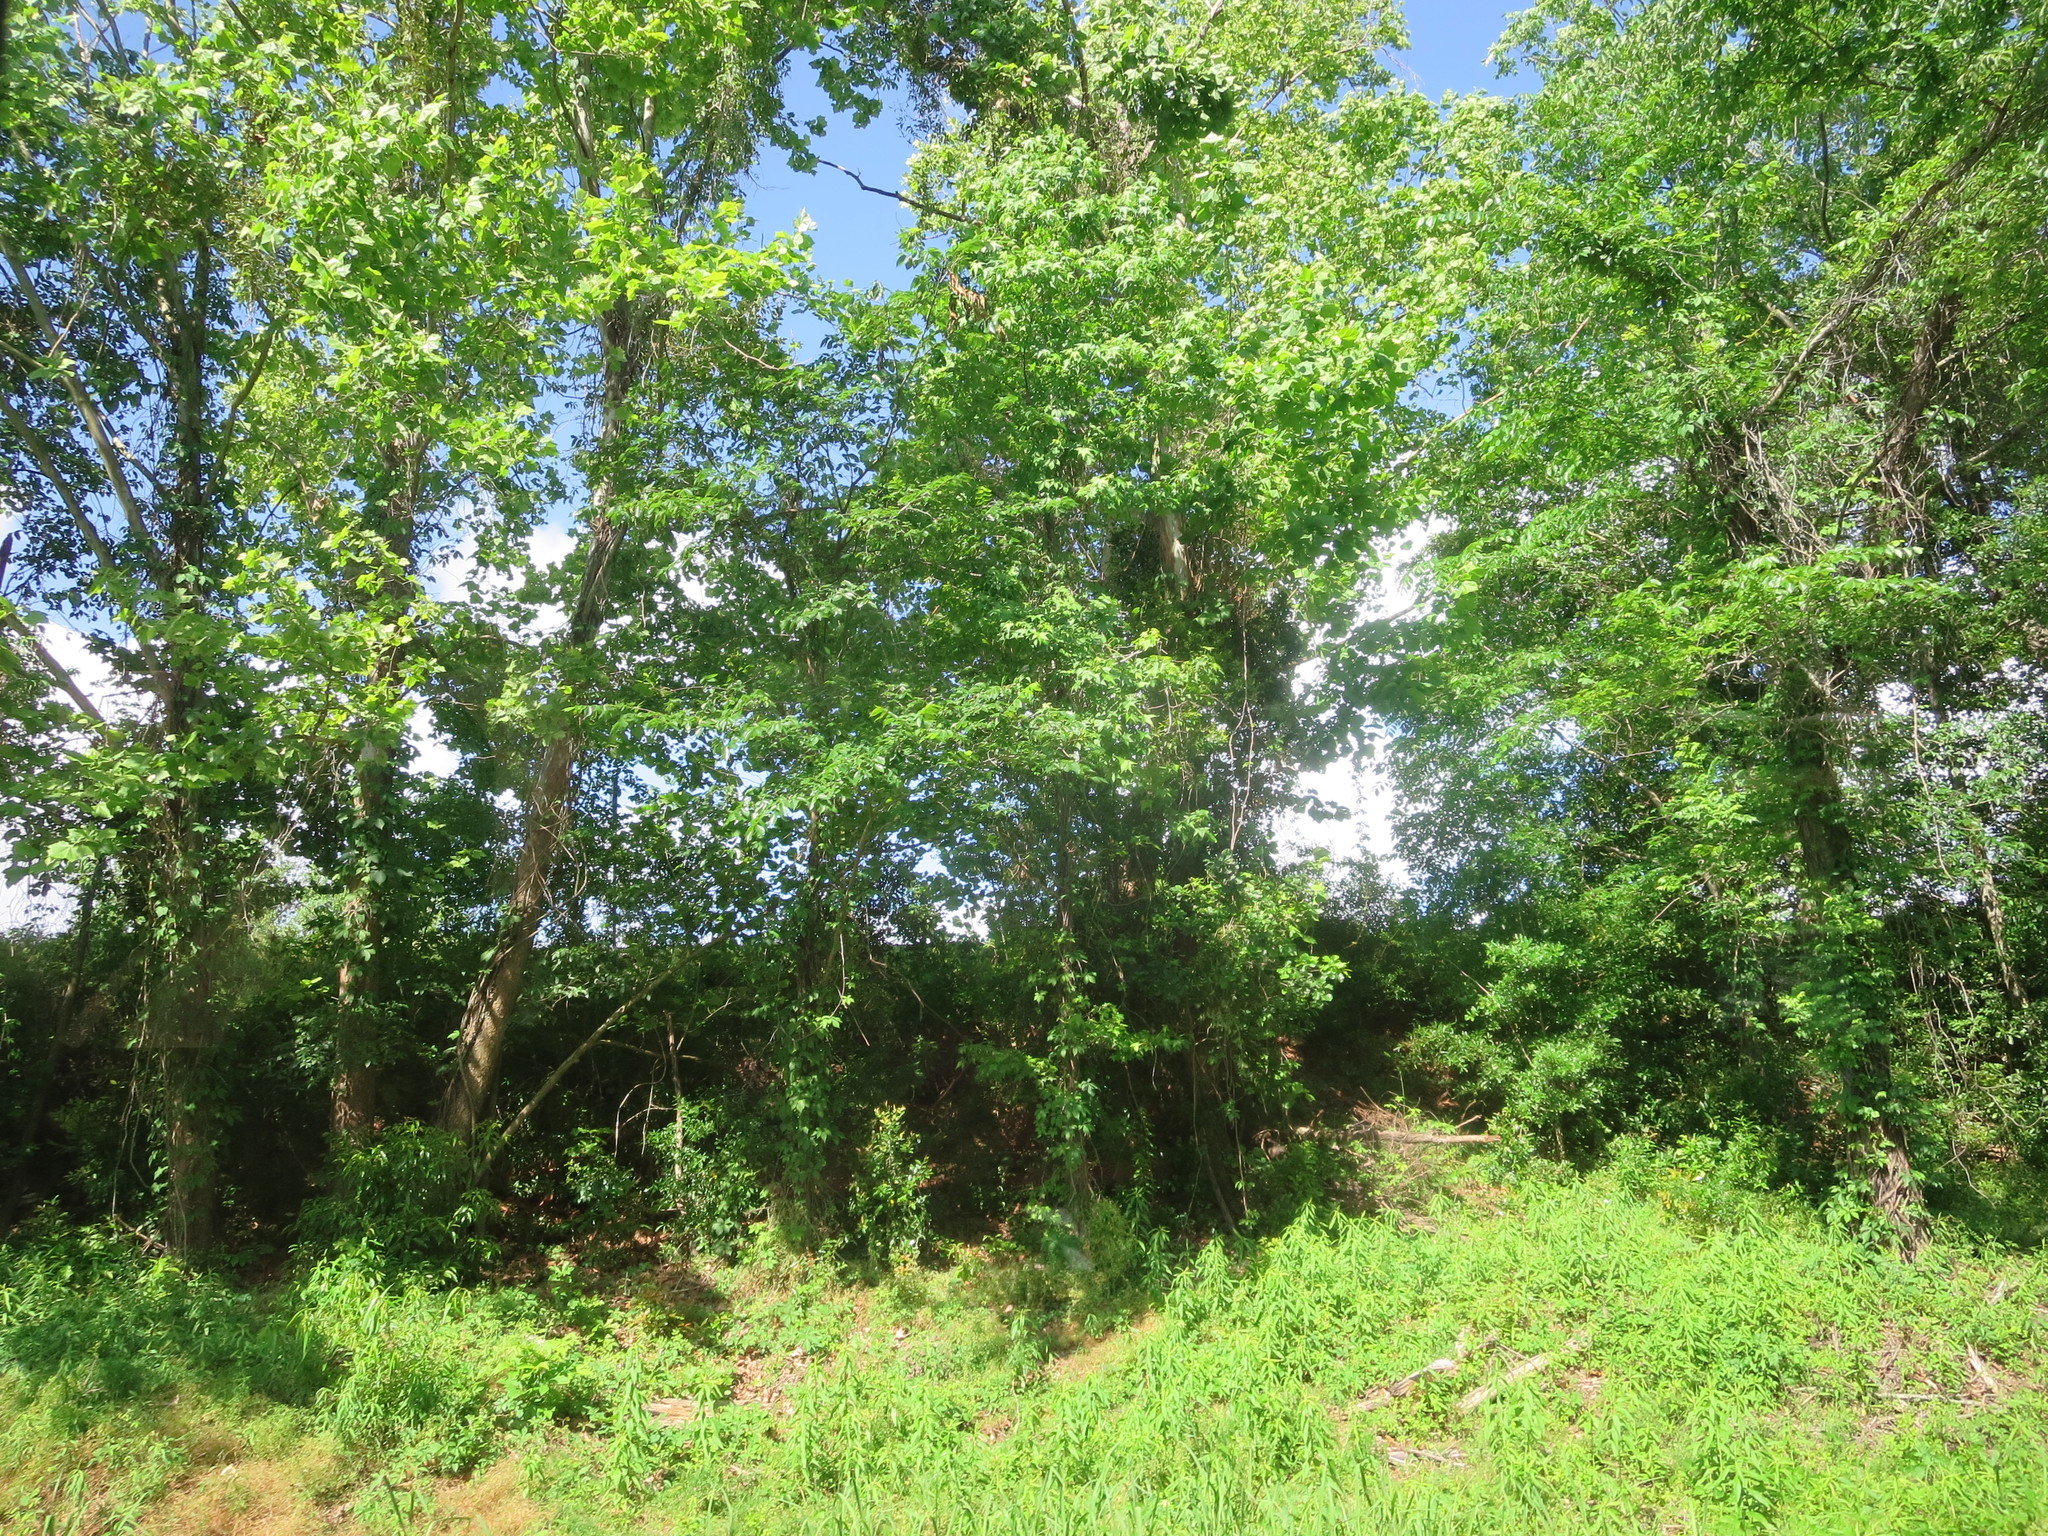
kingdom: Plantae
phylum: Tracheophyta
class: Magnoliopsida
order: Saxifragales
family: Altingiaceae
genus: Liquidambar
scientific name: Liquidambar styraciflua
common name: Sweet gum
